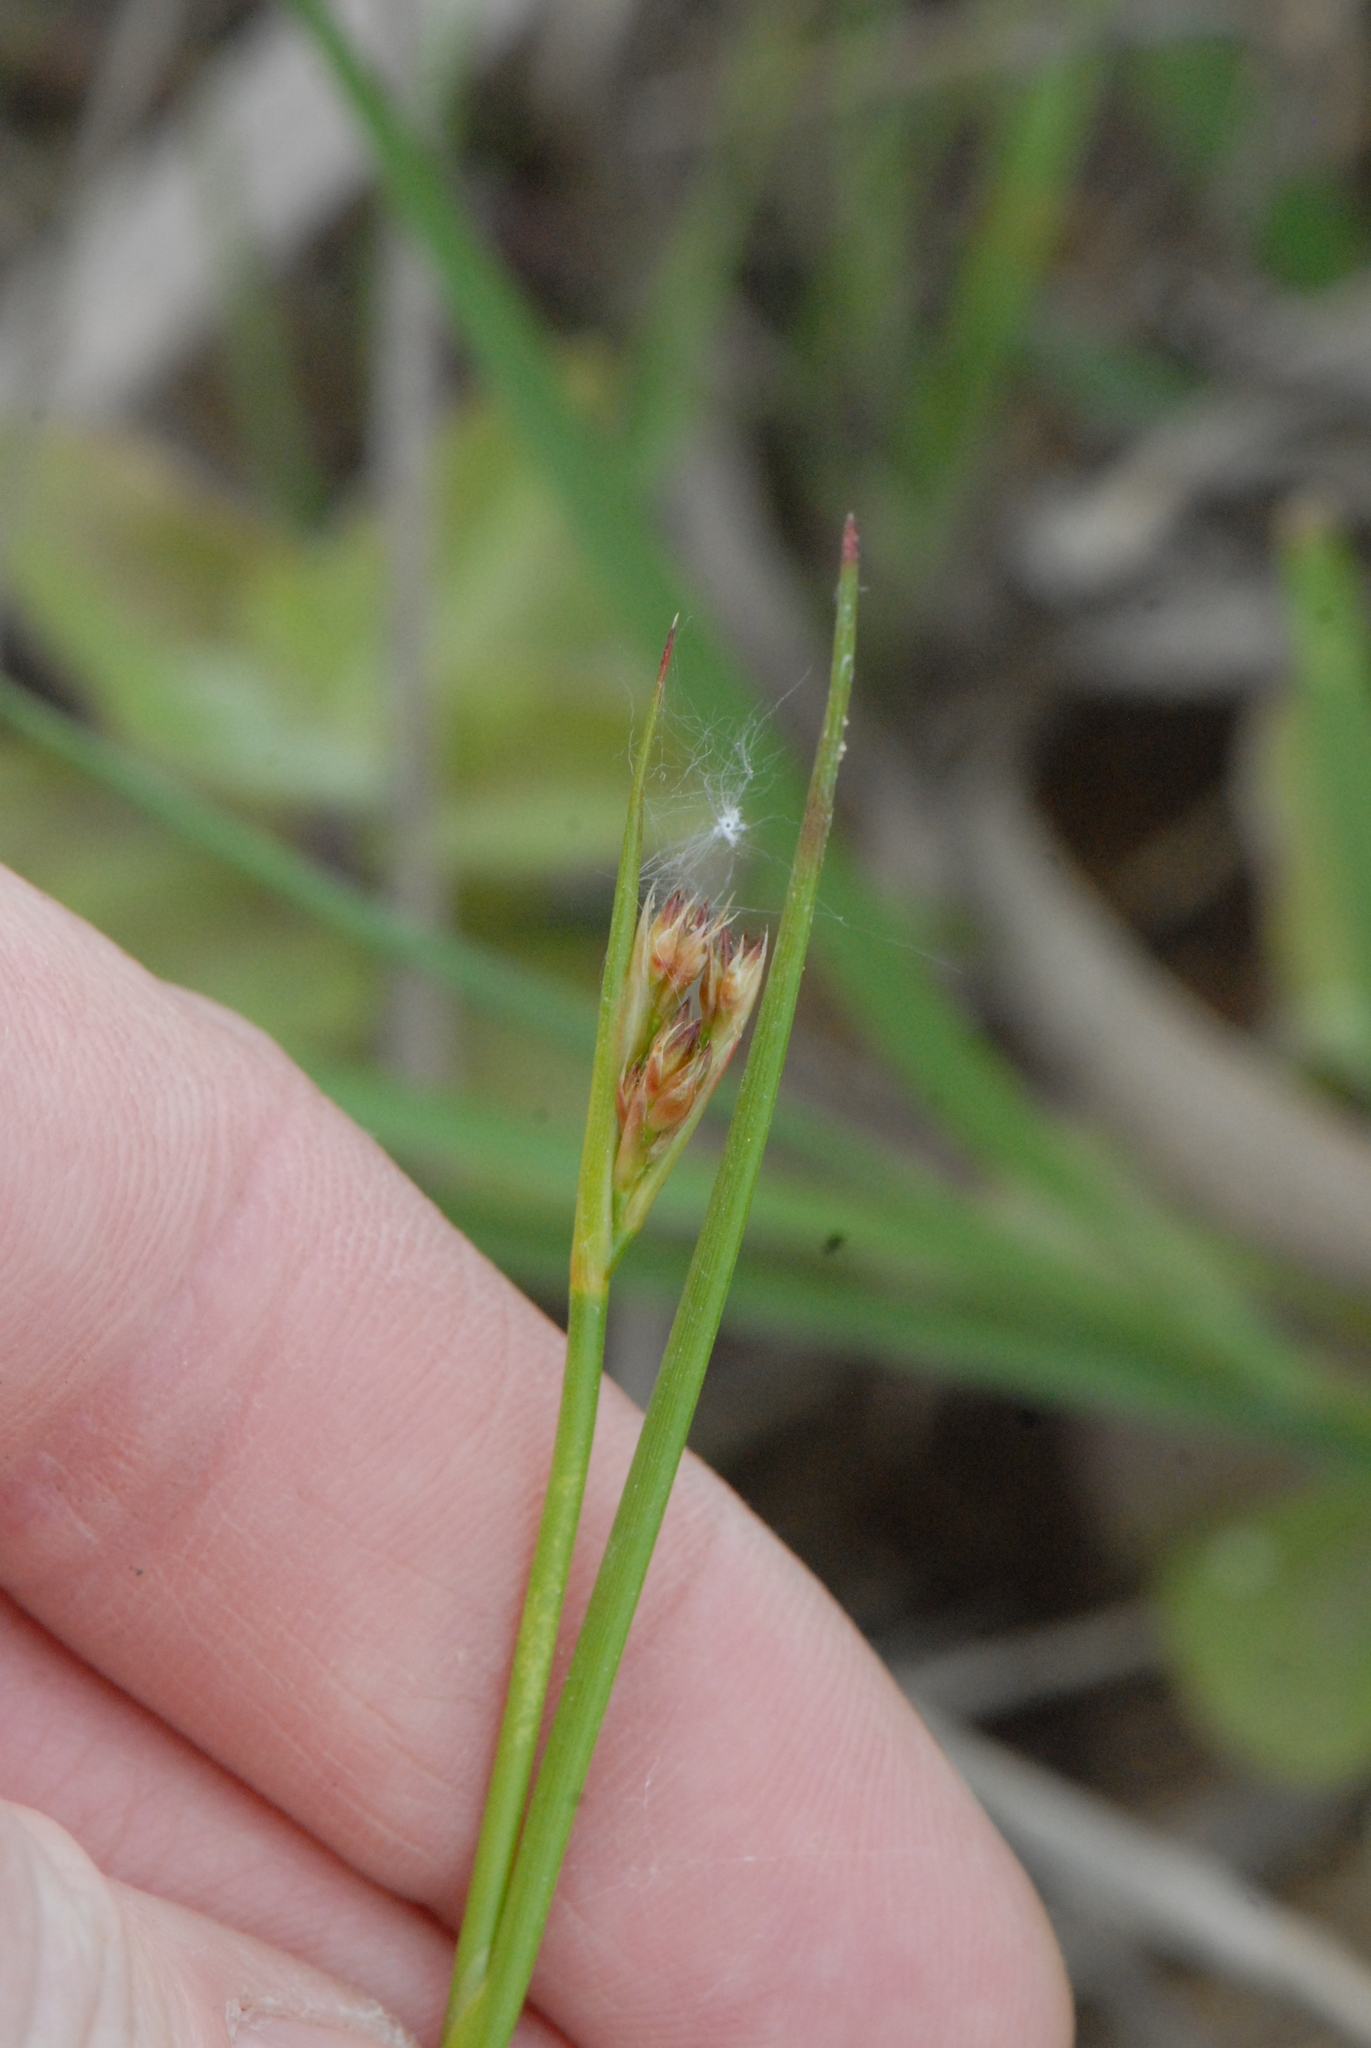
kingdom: Plantae
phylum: Tracheophyta
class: Liliopsida
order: Poales
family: Juncaceae
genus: Juncus
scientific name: Juncus articulatus
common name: Jointed rush
